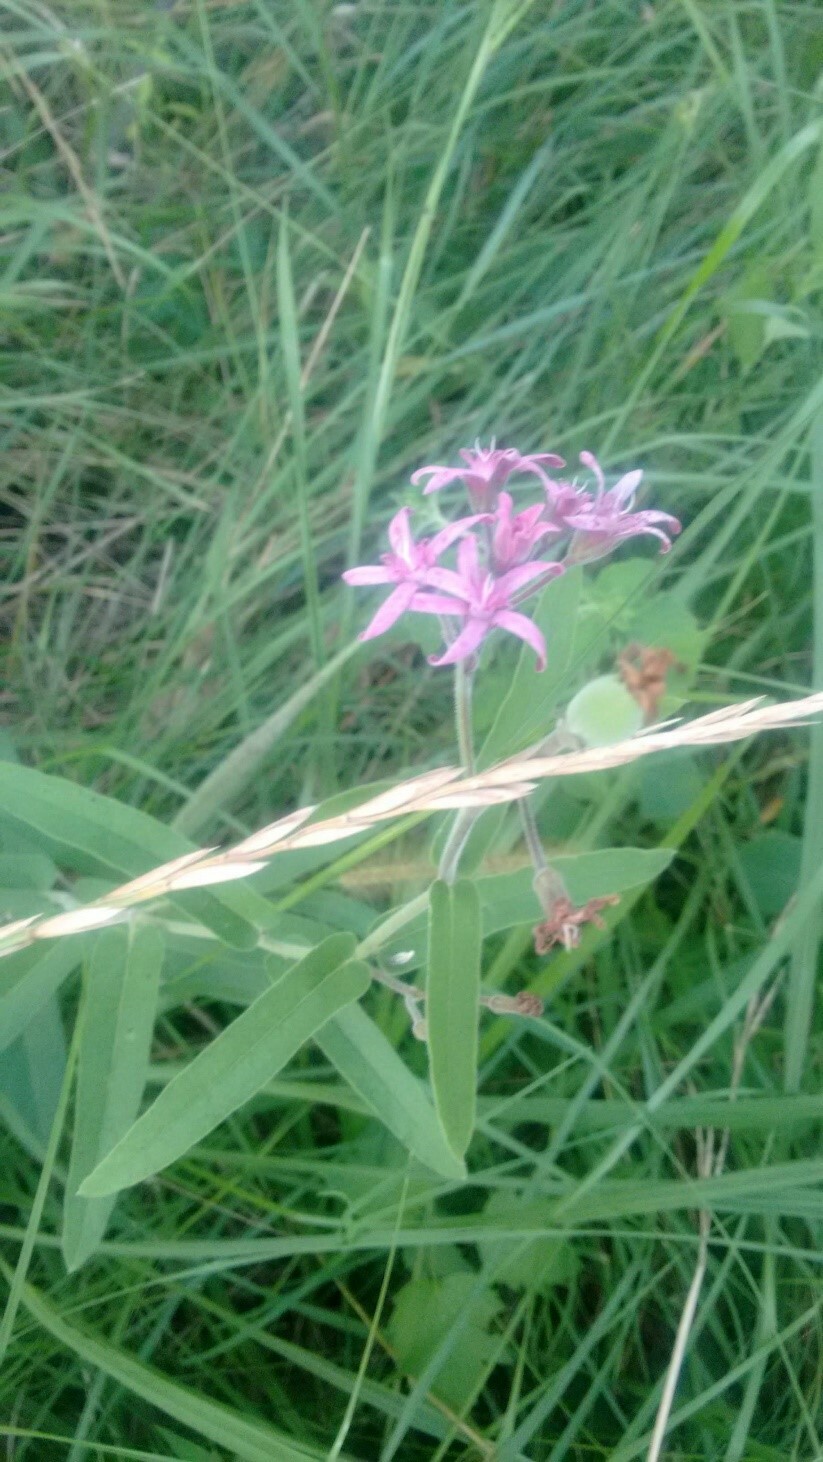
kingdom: Plantae
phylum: Tracheophyta
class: Magnoliopsida
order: Gentianales
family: Apocynaceae
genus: Oxypetalum
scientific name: Oxypetalum solanoides
